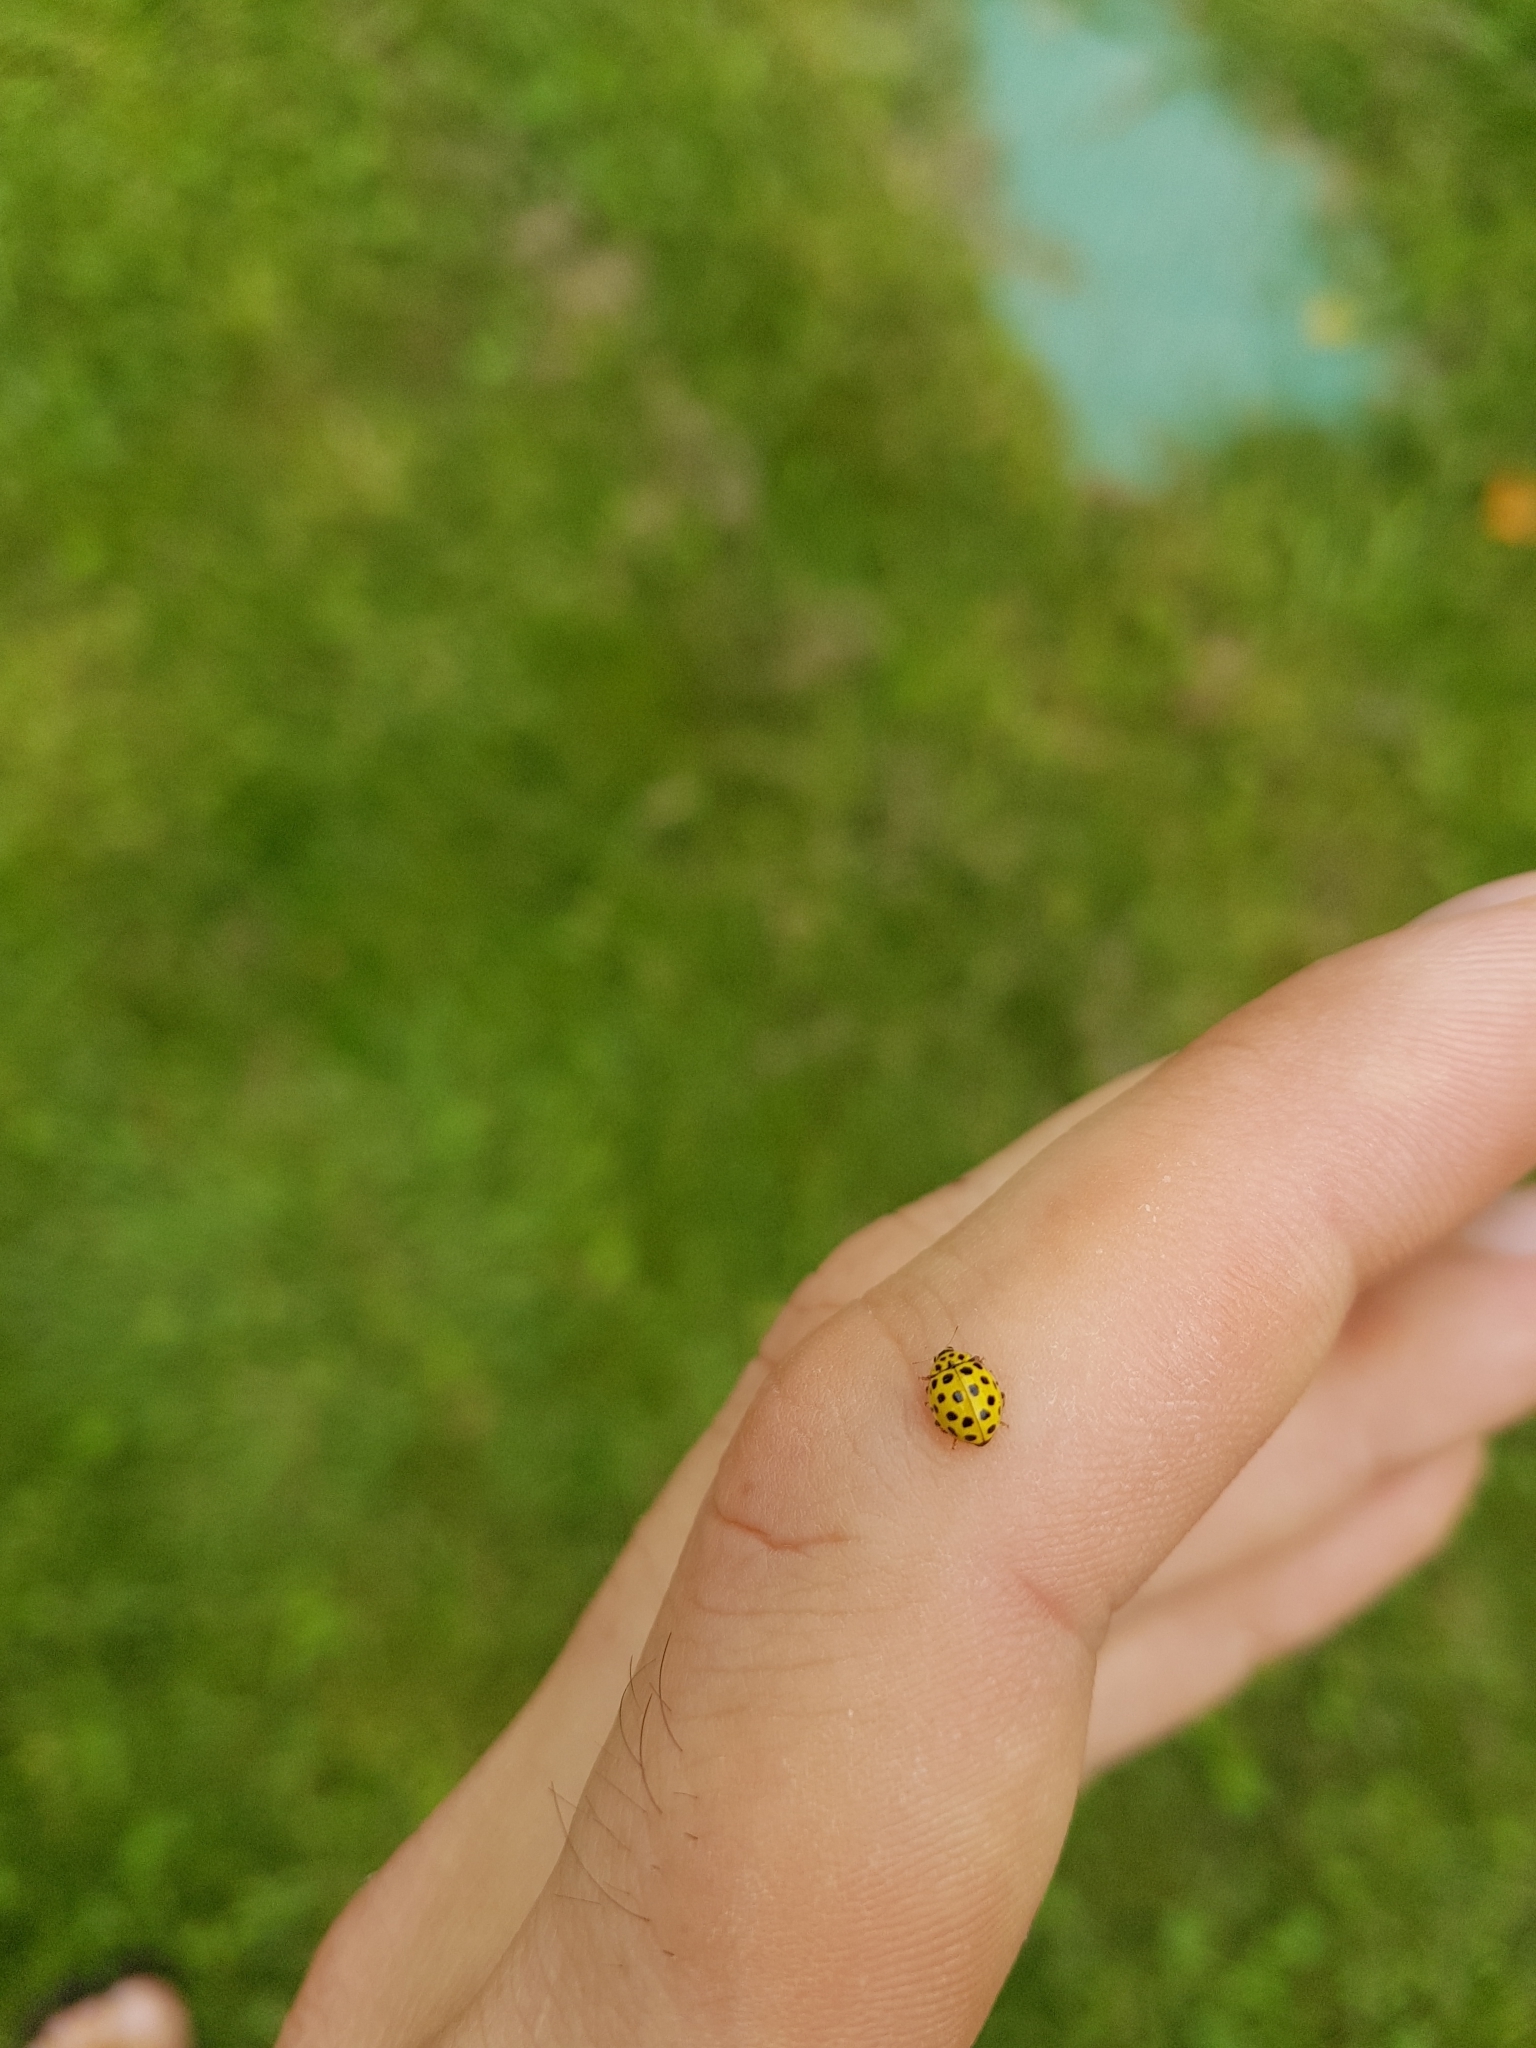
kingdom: Animalia
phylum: Arthropoda
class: Insecta
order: Coleoptera
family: Coccinellidae
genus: Psyllobora
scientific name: Psyllobora vigintiduopunctata
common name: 22-spot ladybird
